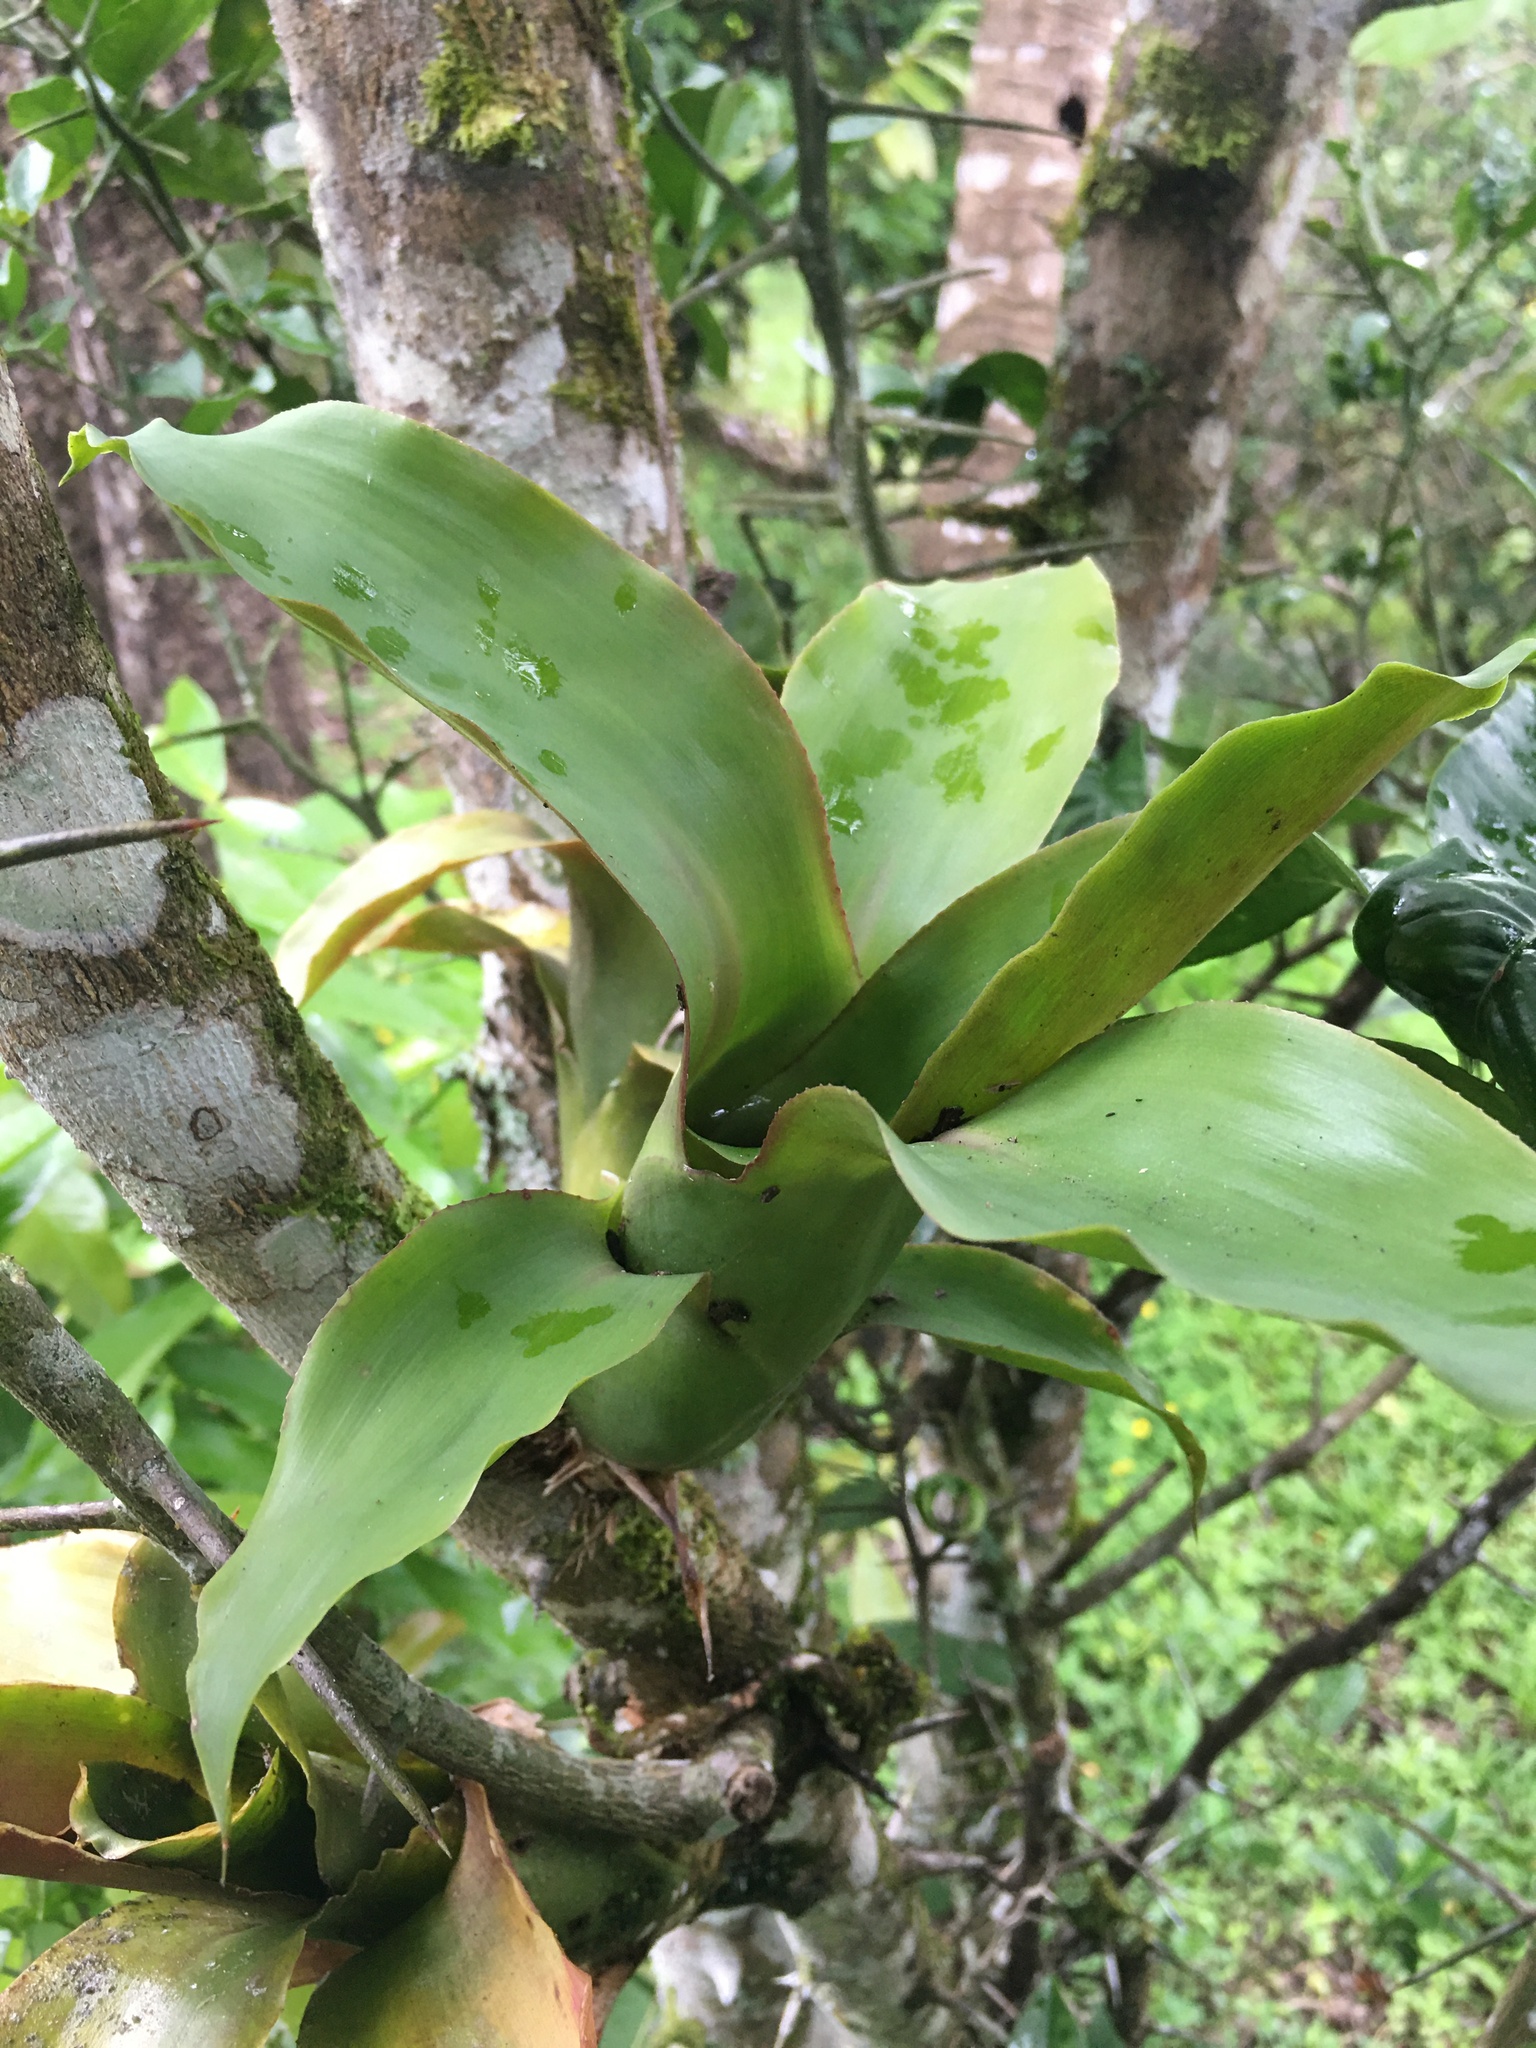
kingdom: Plantae
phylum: Tracheophyta
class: Liliopsida
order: Poales
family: Bromeliaceae
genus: Lymania
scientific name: Lymania smithii
